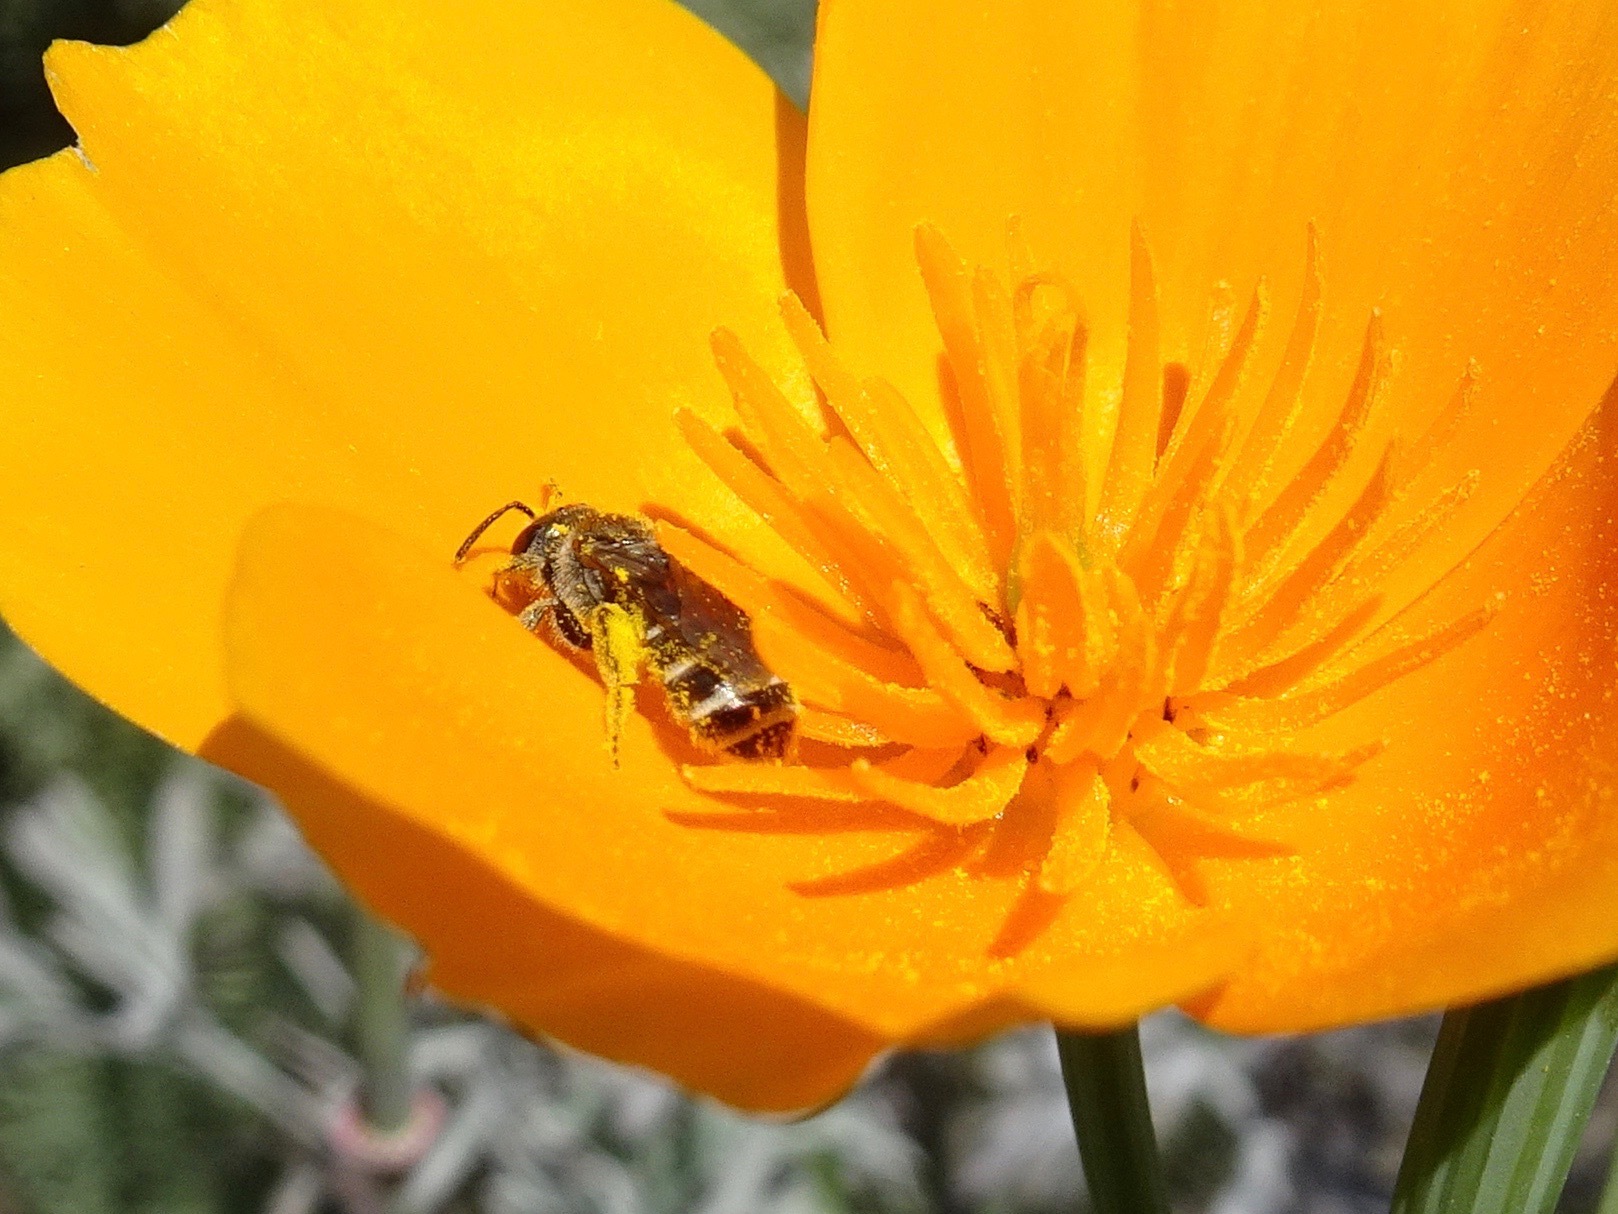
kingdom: Animalia
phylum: Arthropoda
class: Insecta
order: Hymenoptera
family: Halictidae
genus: Halictus
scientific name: Halictus tripartitus
